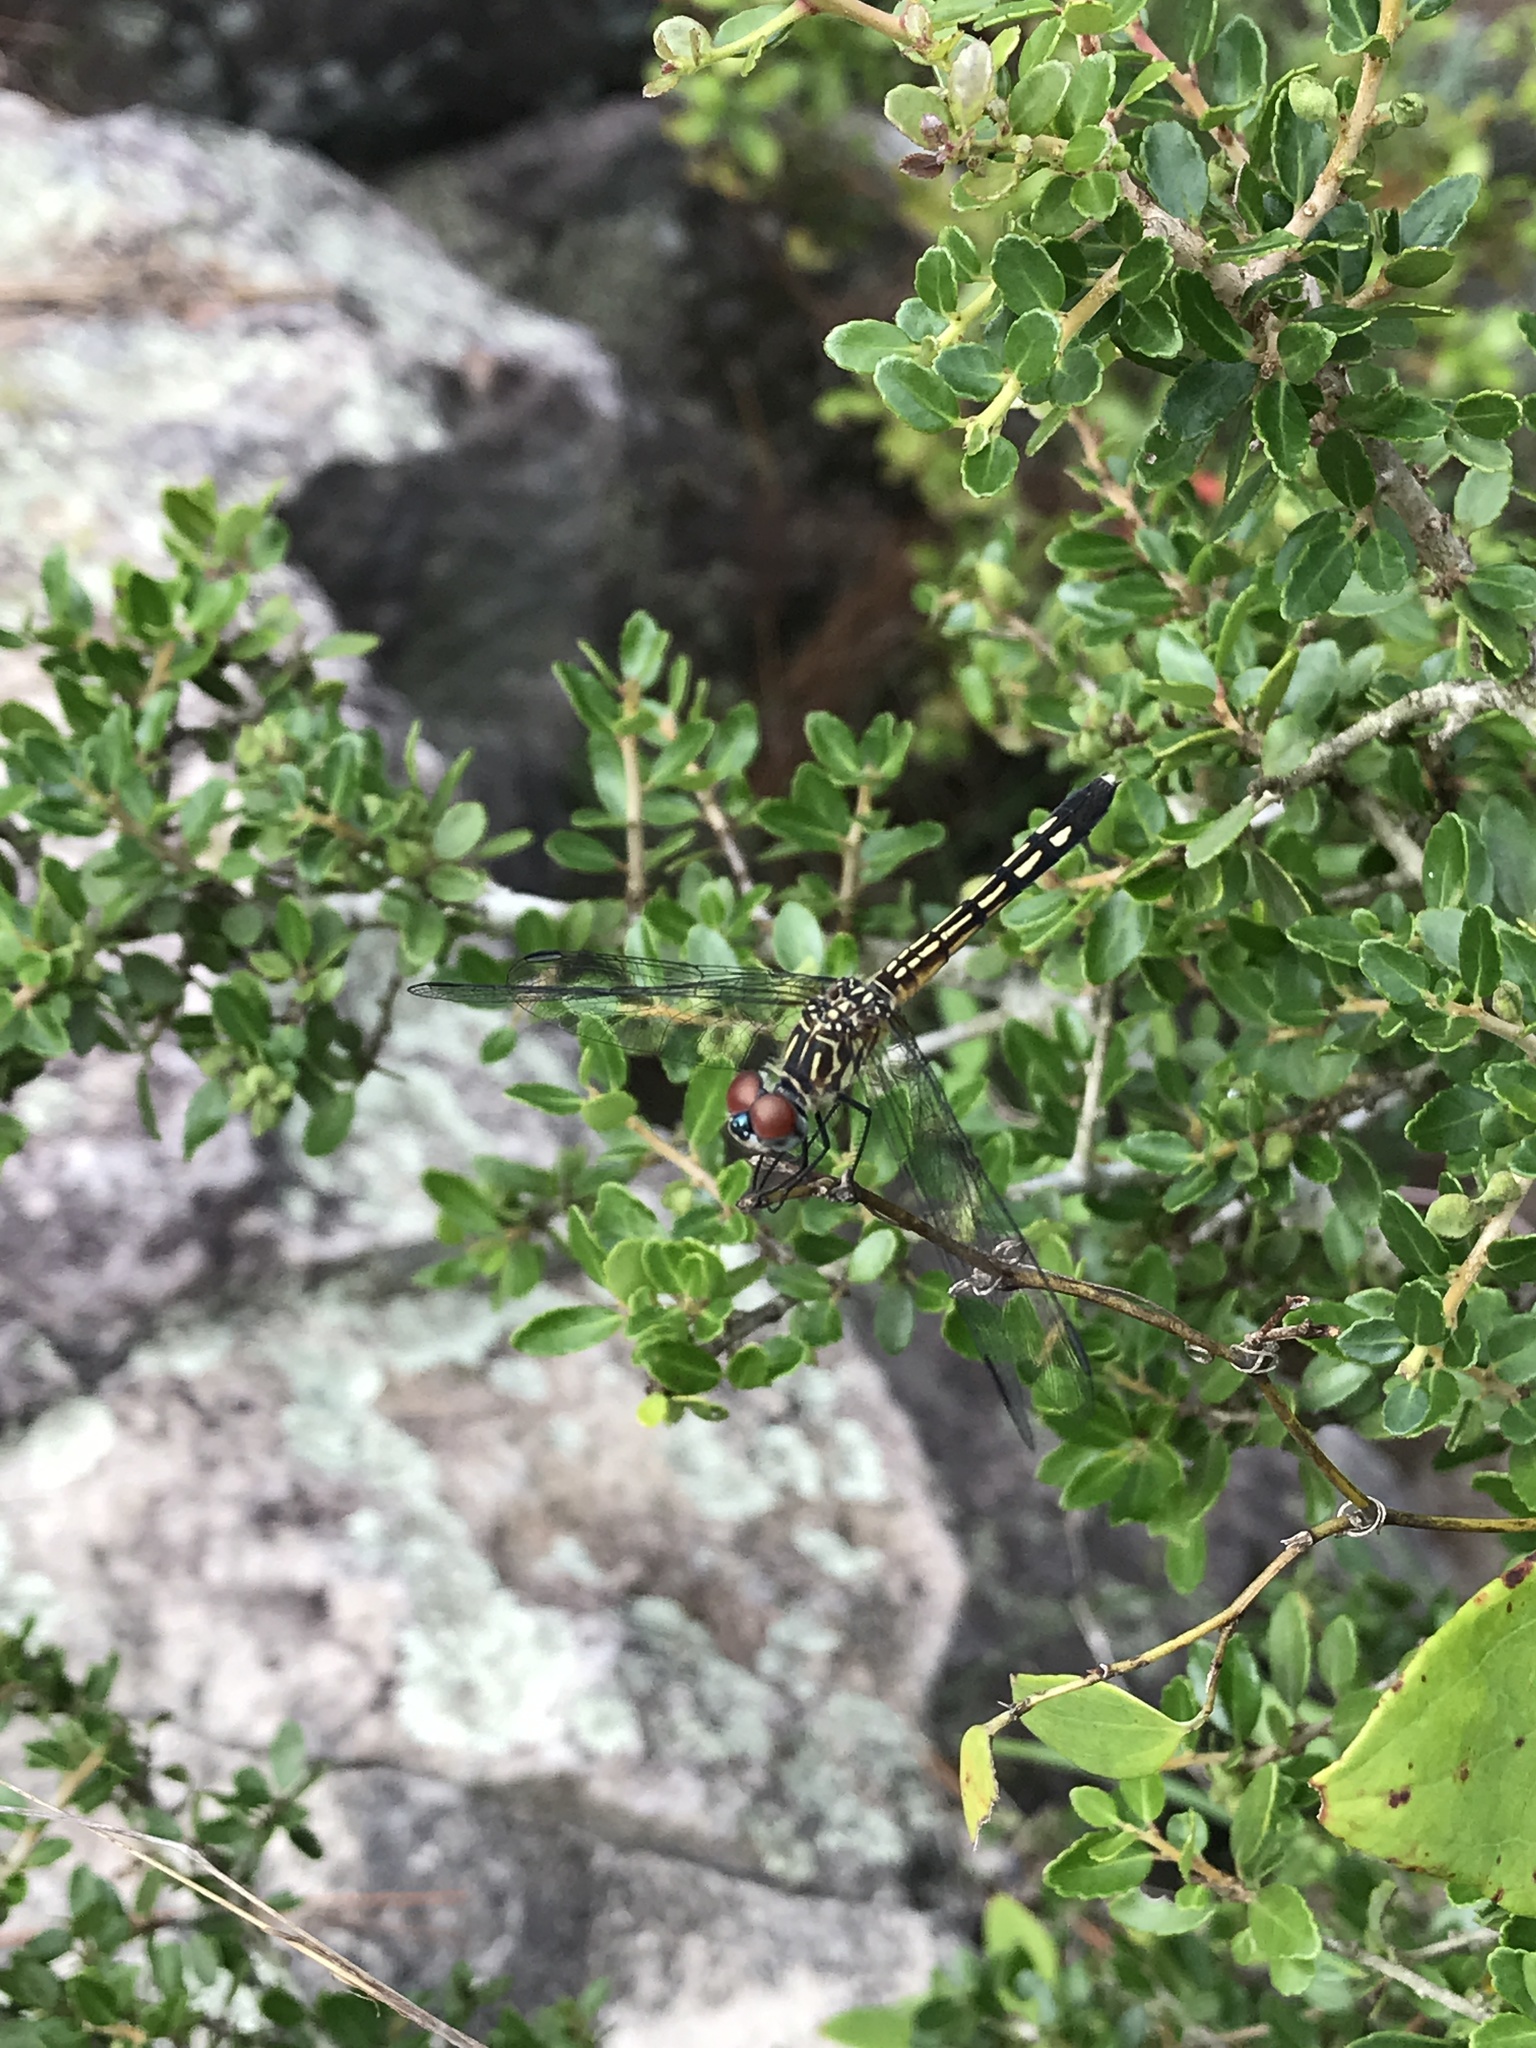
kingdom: Animalia
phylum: Arthropoda
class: Insecta
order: Odonata
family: Libellulidae
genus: Pachydiplax
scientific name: Pachydiplax longipennis
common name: Blue dasher
